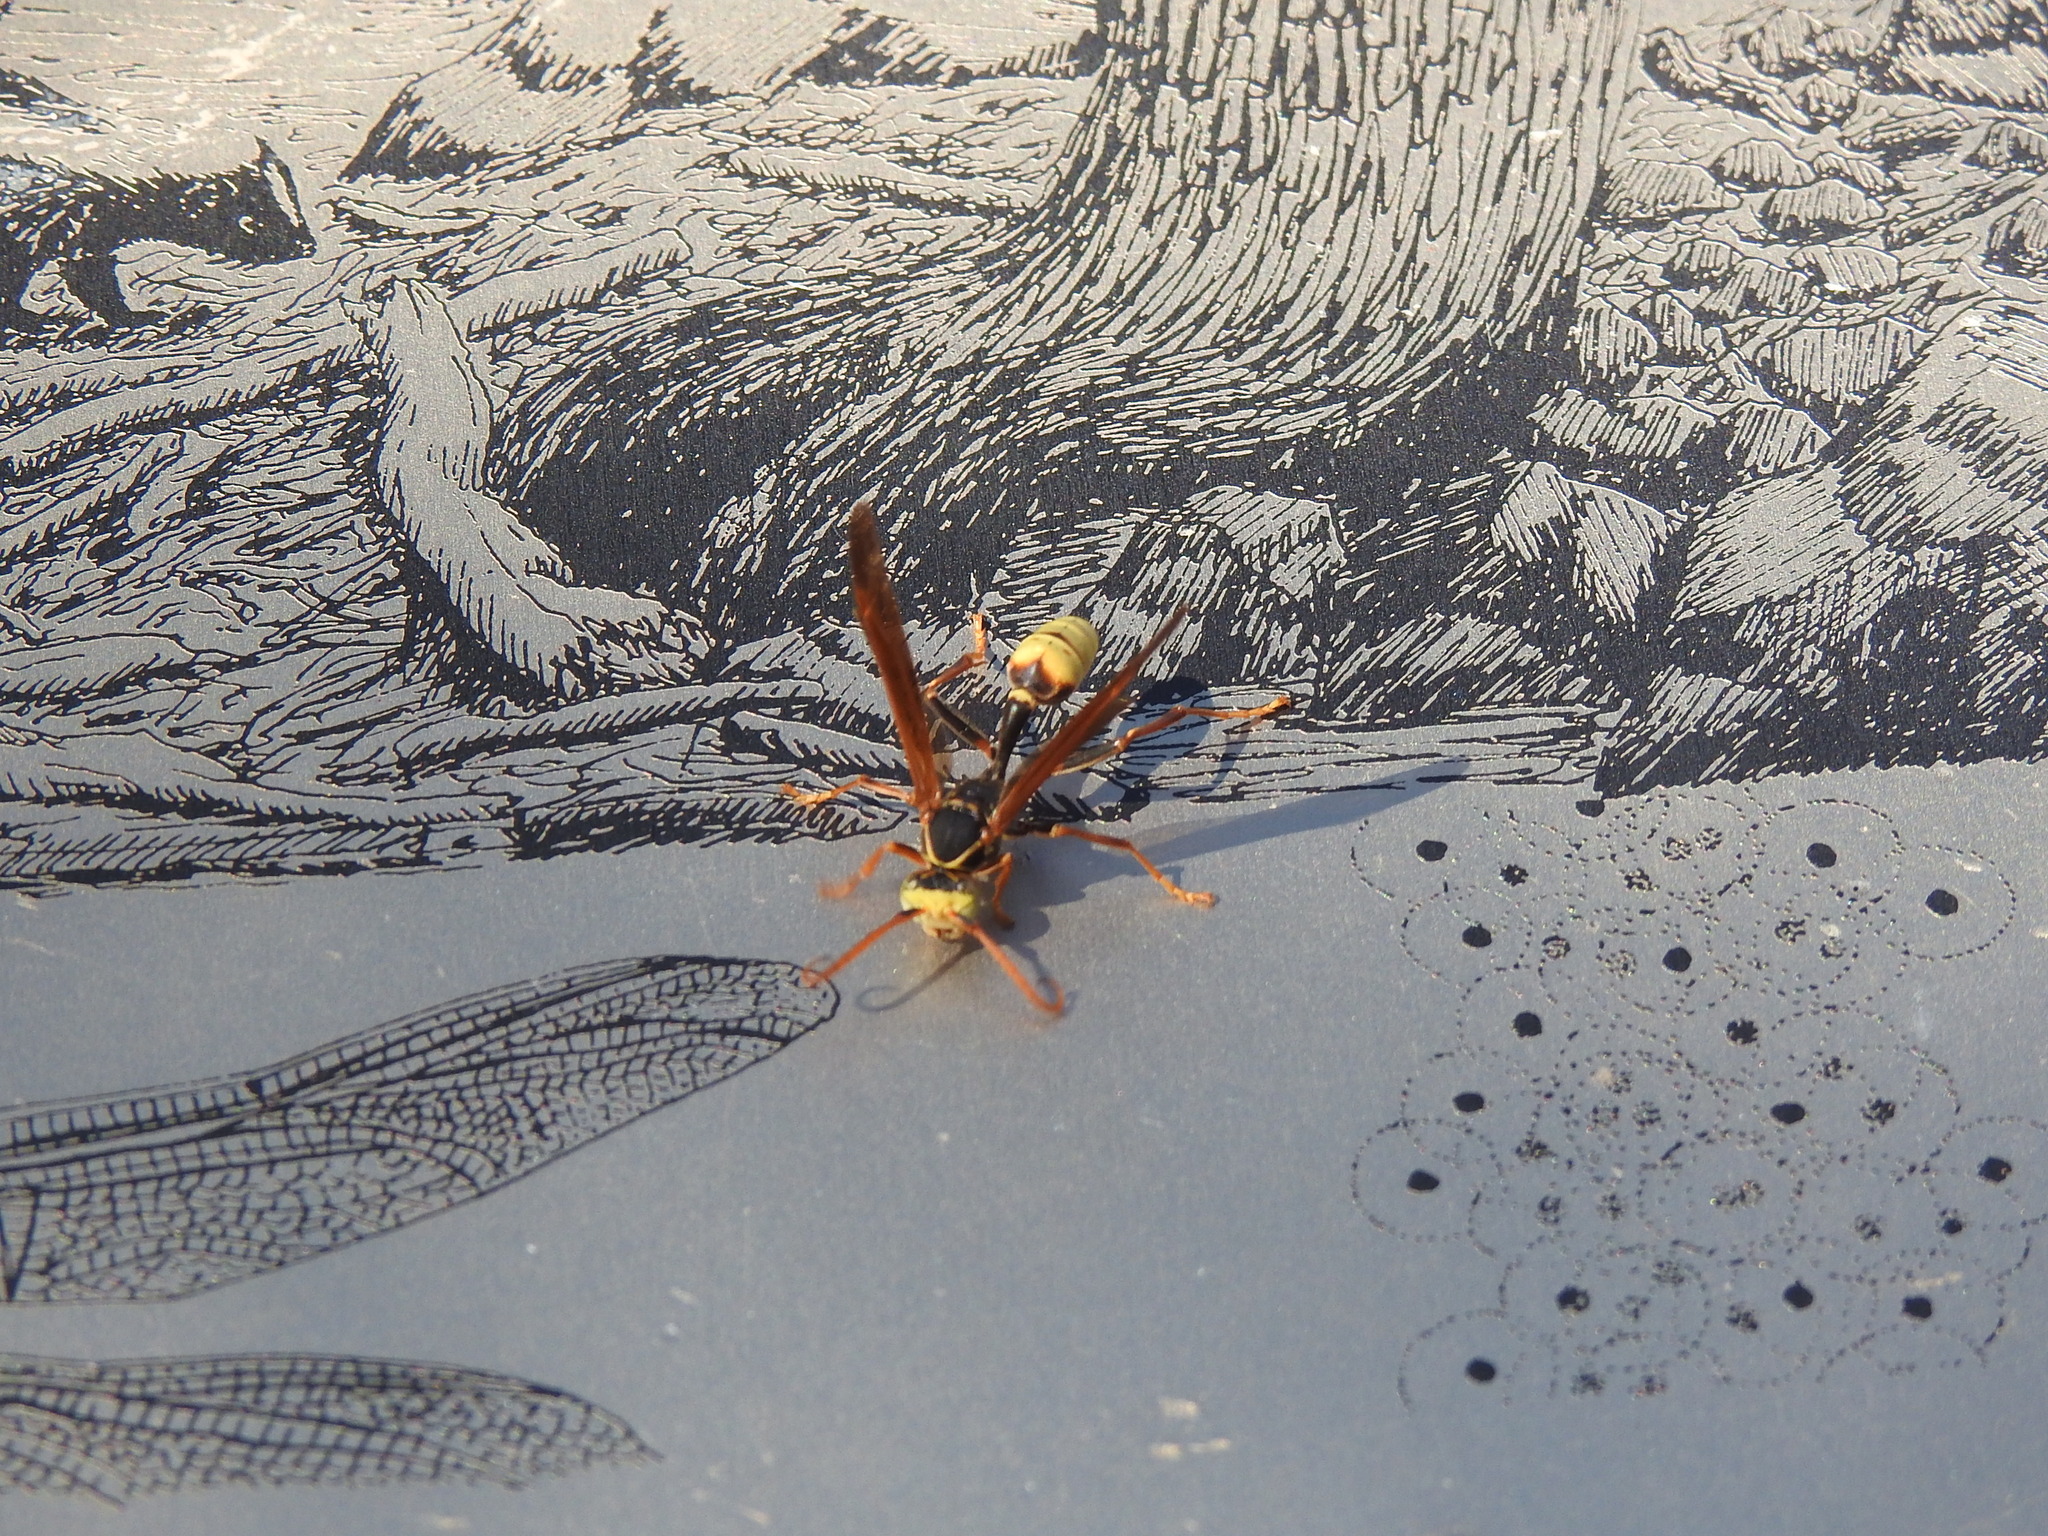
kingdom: Animalia
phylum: Arthropoda
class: Insecta
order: Hymenoptera
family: Vespidae
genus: Mischocyttarus
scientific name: Mischocyttarus flavitarsis
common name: Wasp
